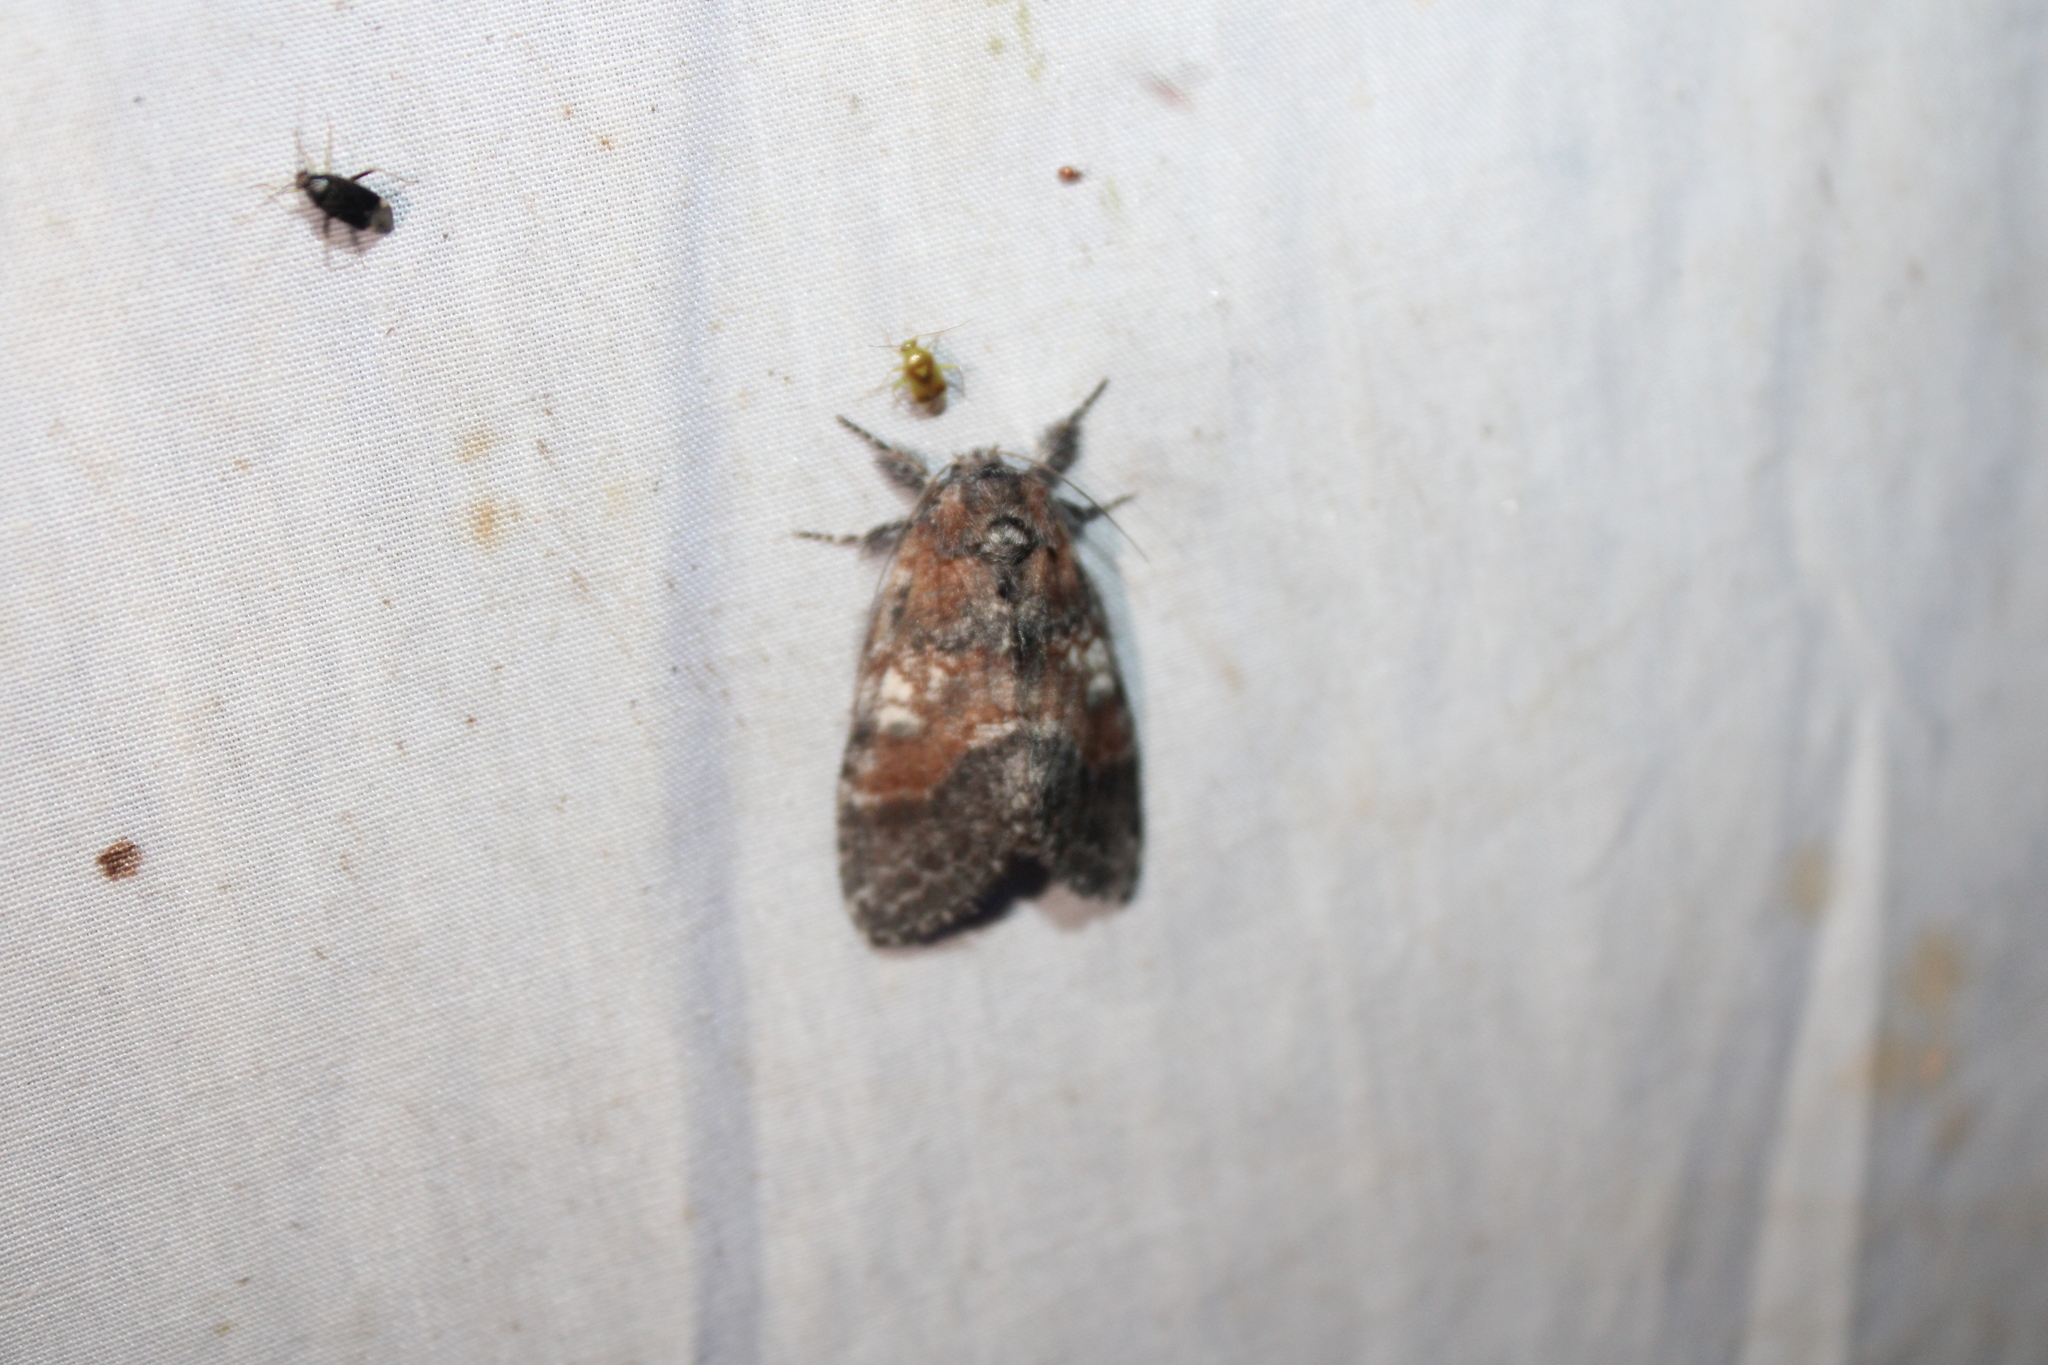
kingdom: Animalia
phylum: Arthropoda
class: Insecta
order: Lepidoptera
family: Notodontidae
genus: Peridea
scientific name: Peridea ferruginea
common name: Chocolate prominent
